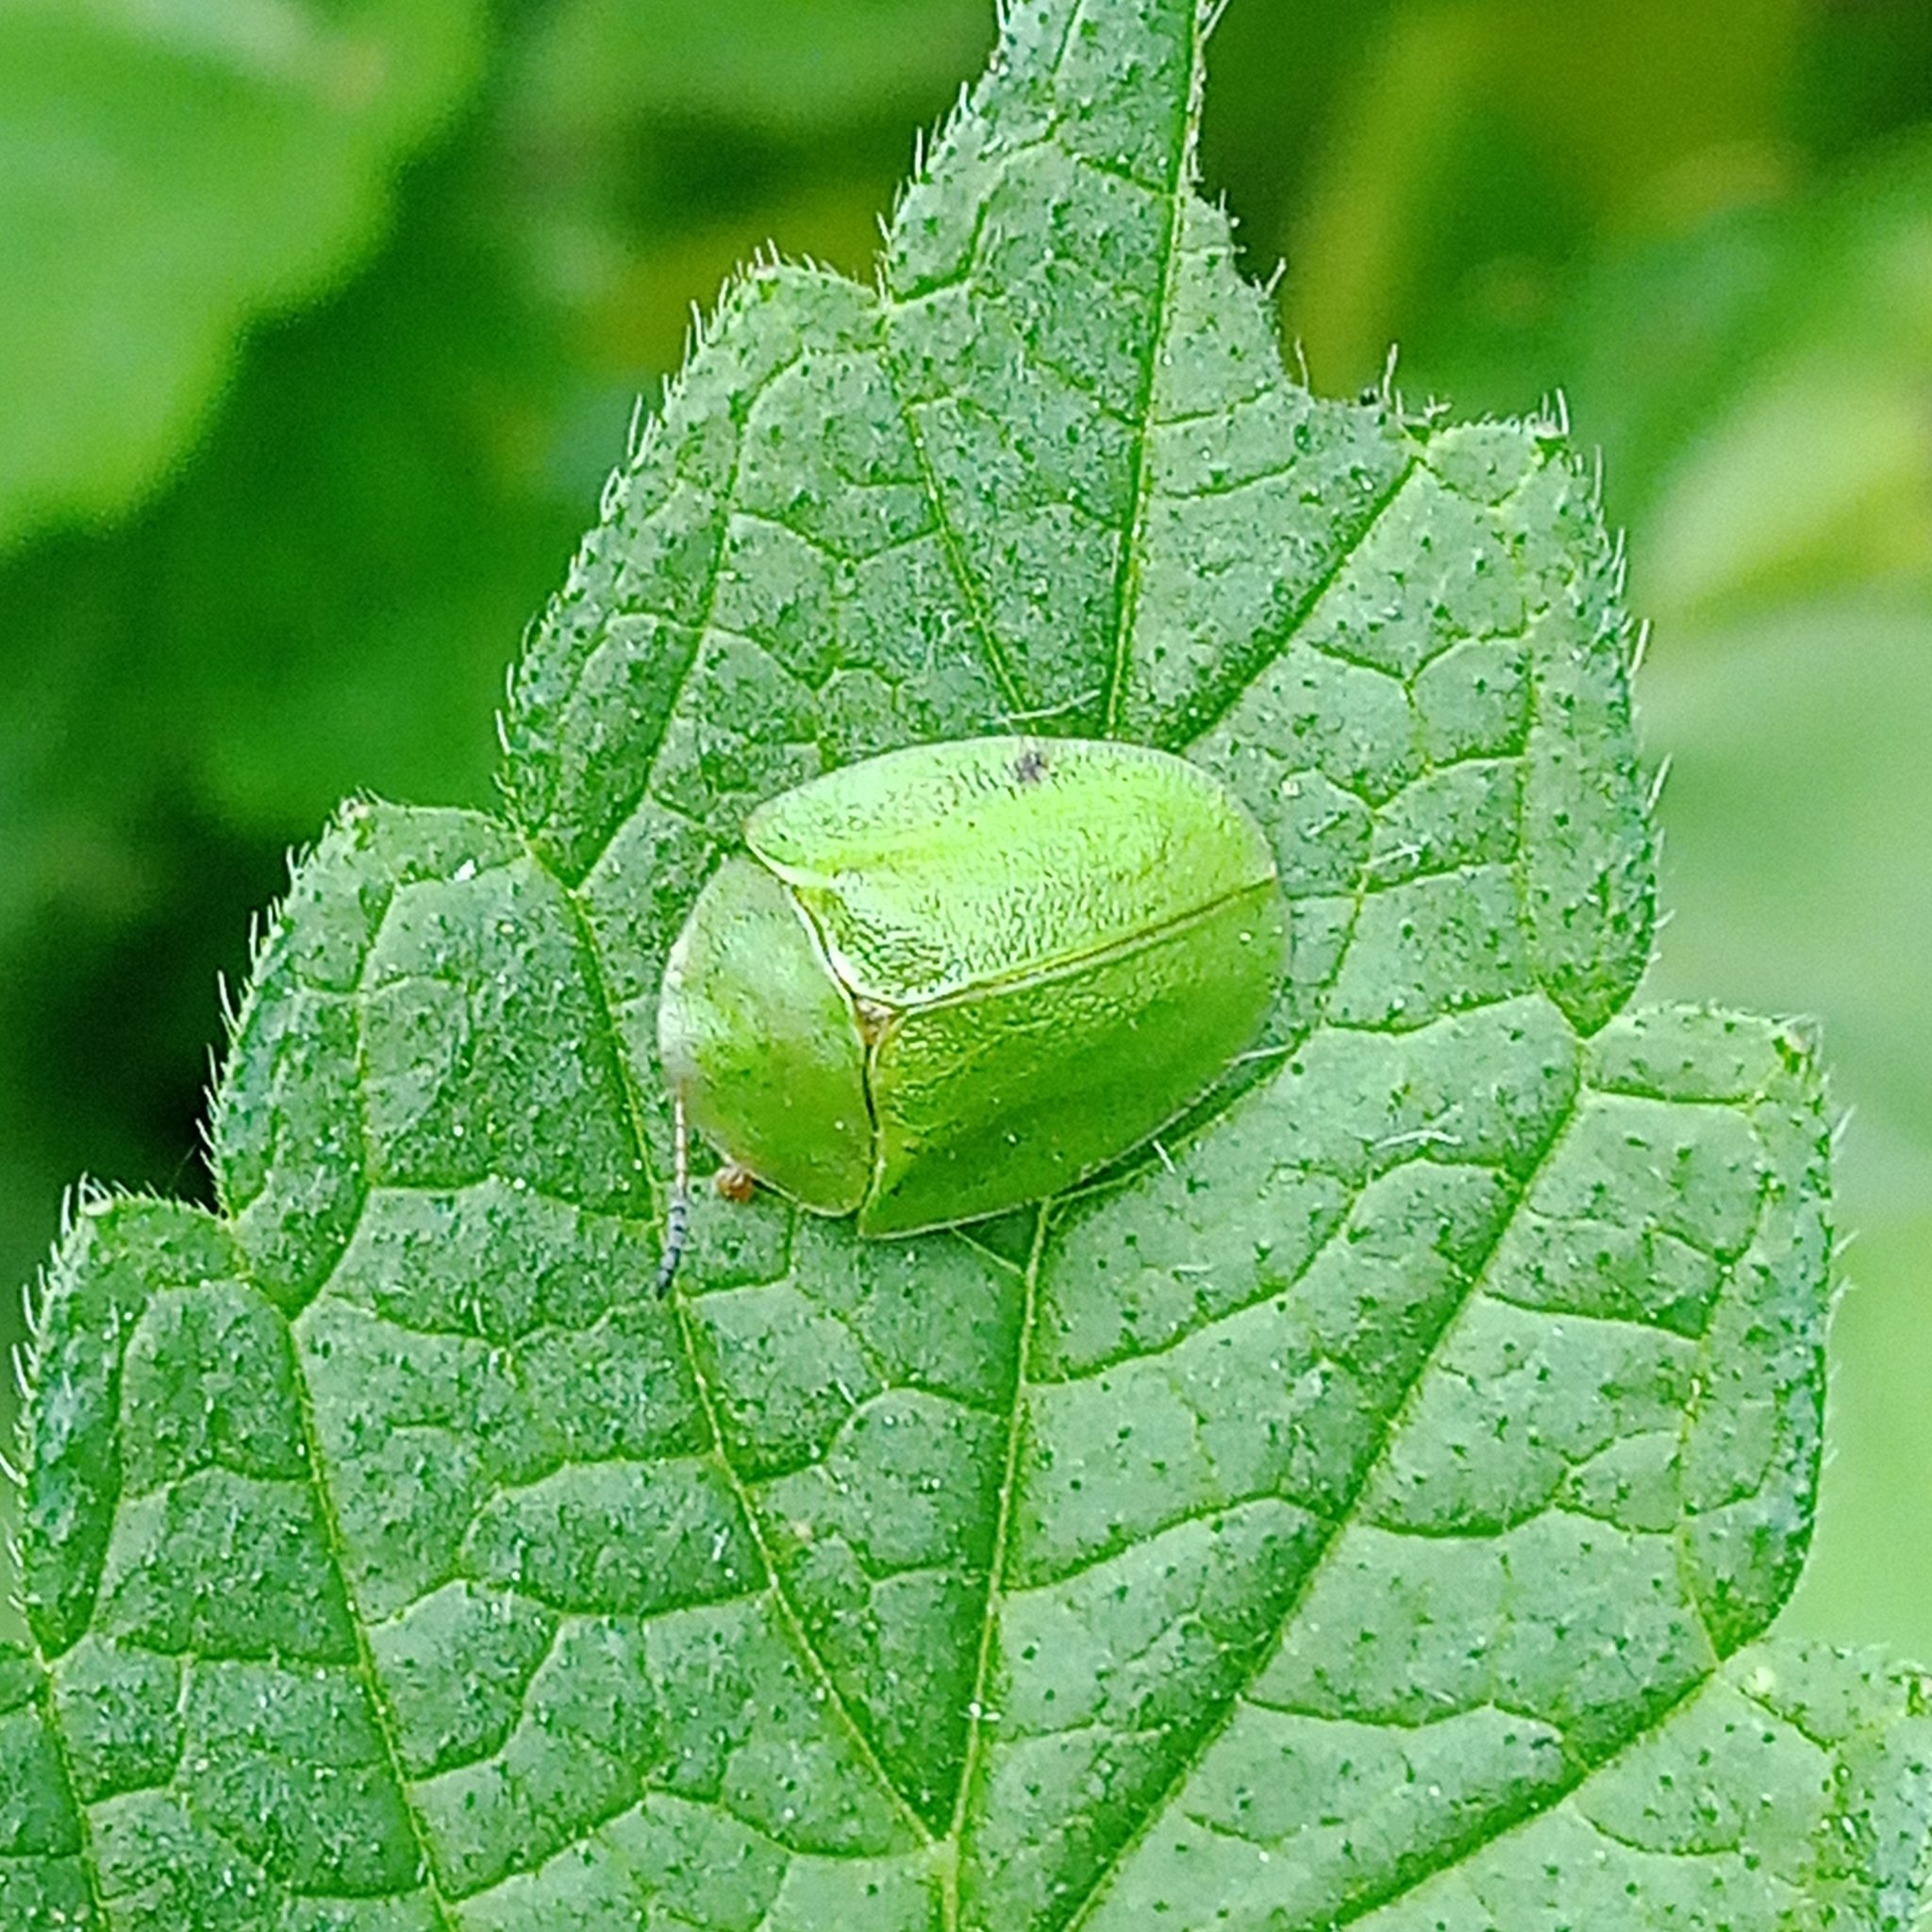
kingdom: Animalia
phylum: Arthropoda
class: Insecta
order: Coleoptera
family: Chrysomelidae
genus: Cassida
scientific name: Cassida viridis
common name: Green tortoise beetle
